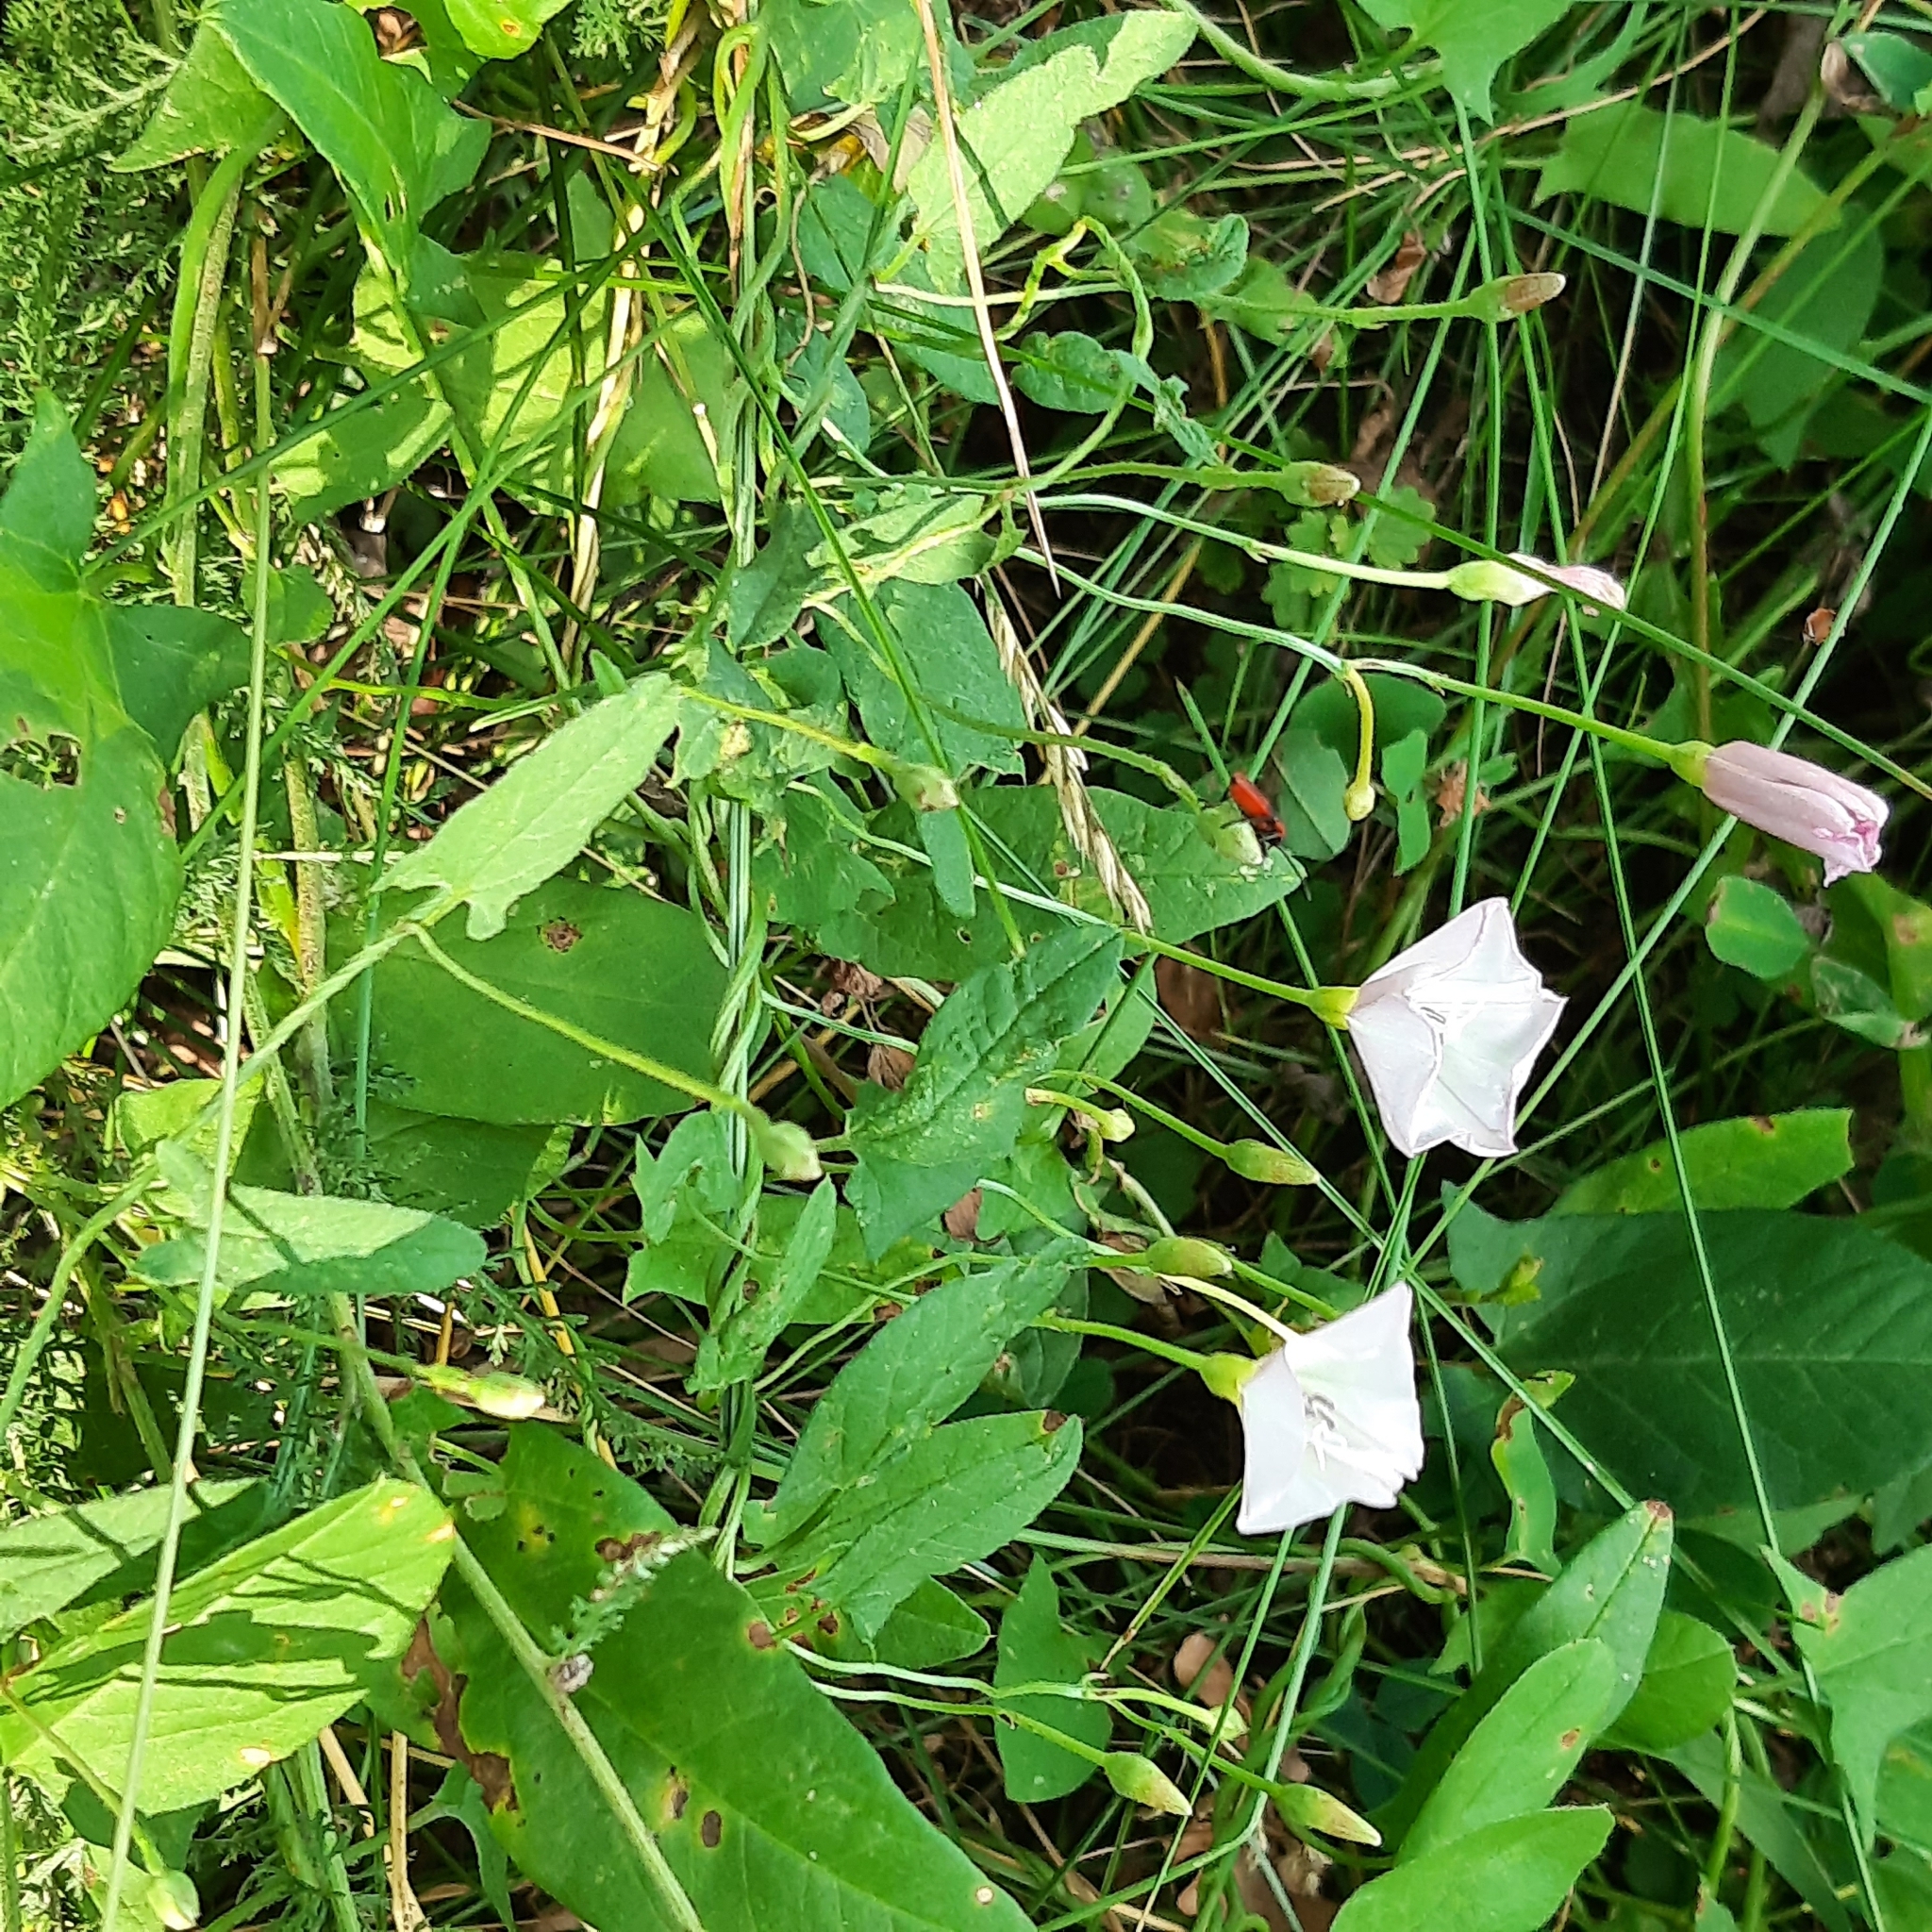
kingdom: Plantae
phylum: Tracheophyta
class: Magnoliopsida
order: Solanales
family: Convolvulaceae
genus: Convolvulus
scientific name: Convolvulus arvensis
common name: Field bindweed
